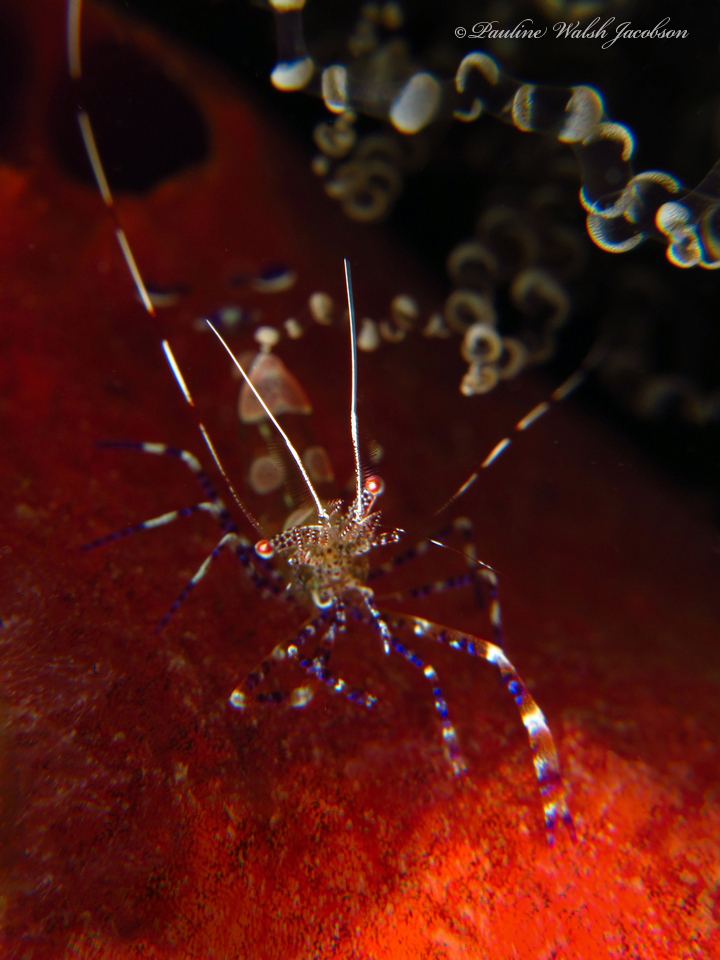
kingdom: Animalia
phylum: Arthropoda
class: Malacostraca
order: Decapoda
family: Palaemonidae
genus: Periclimenes
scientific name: Periclimenes yucatanicus
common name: Spotted cleaning shrimp
